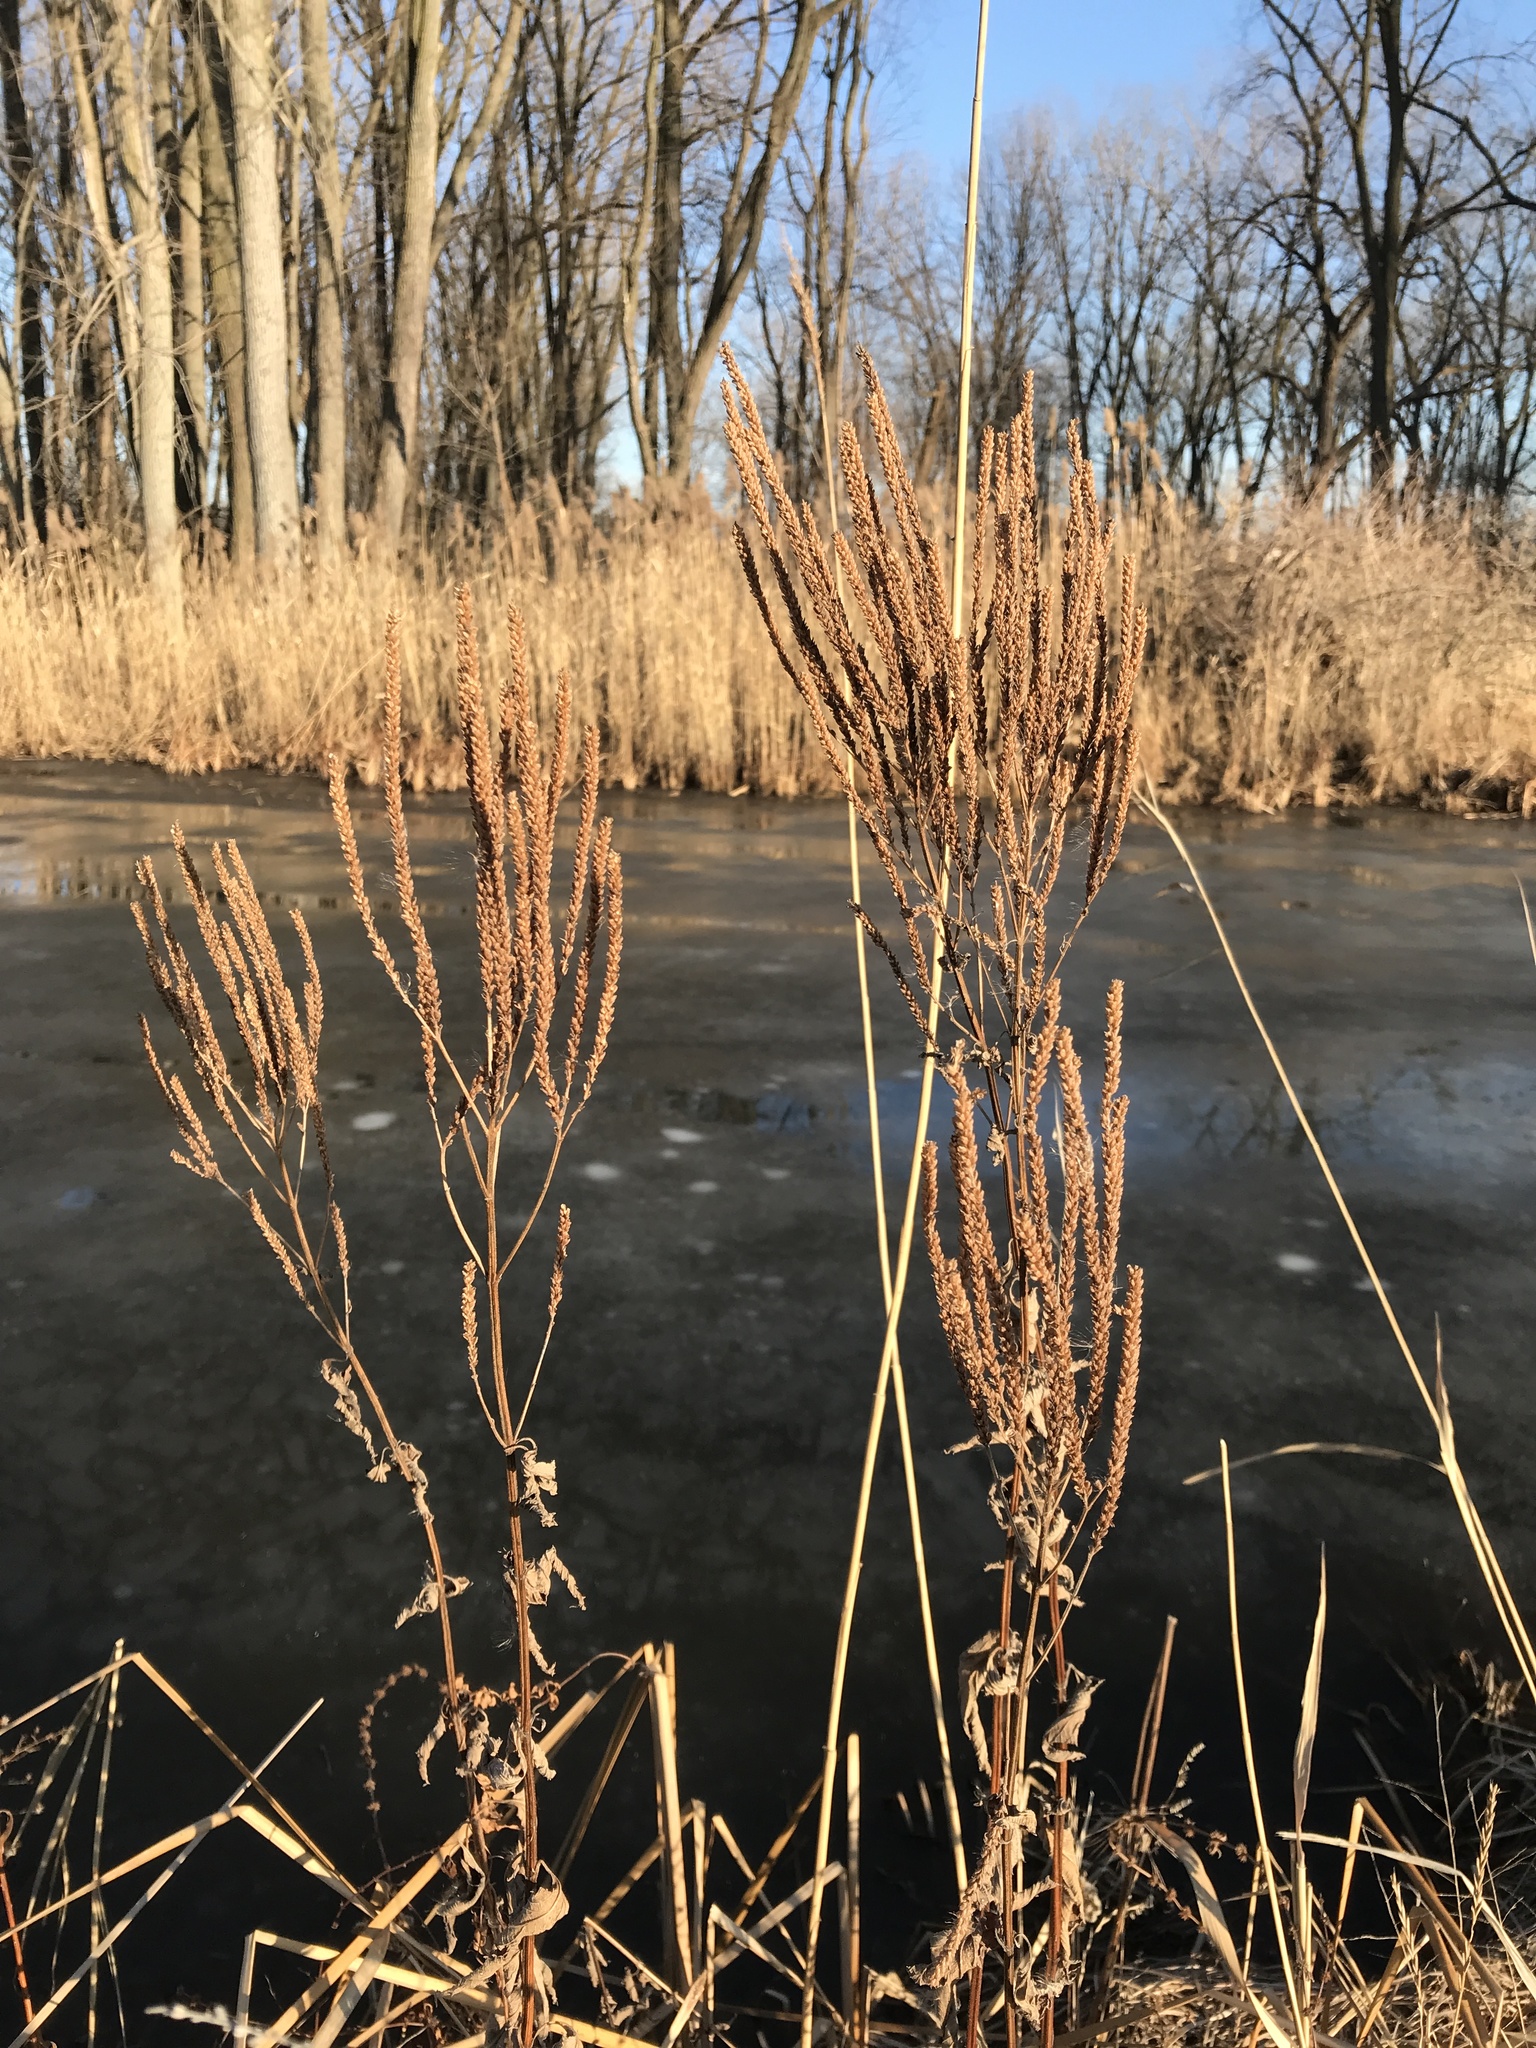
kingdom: Plantae
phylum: Tracheophyta
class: Magnoliopsida
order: Lamiales
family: Verbenaceae
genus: Verbena
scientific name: Verbena hastata
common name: American blue vervain
